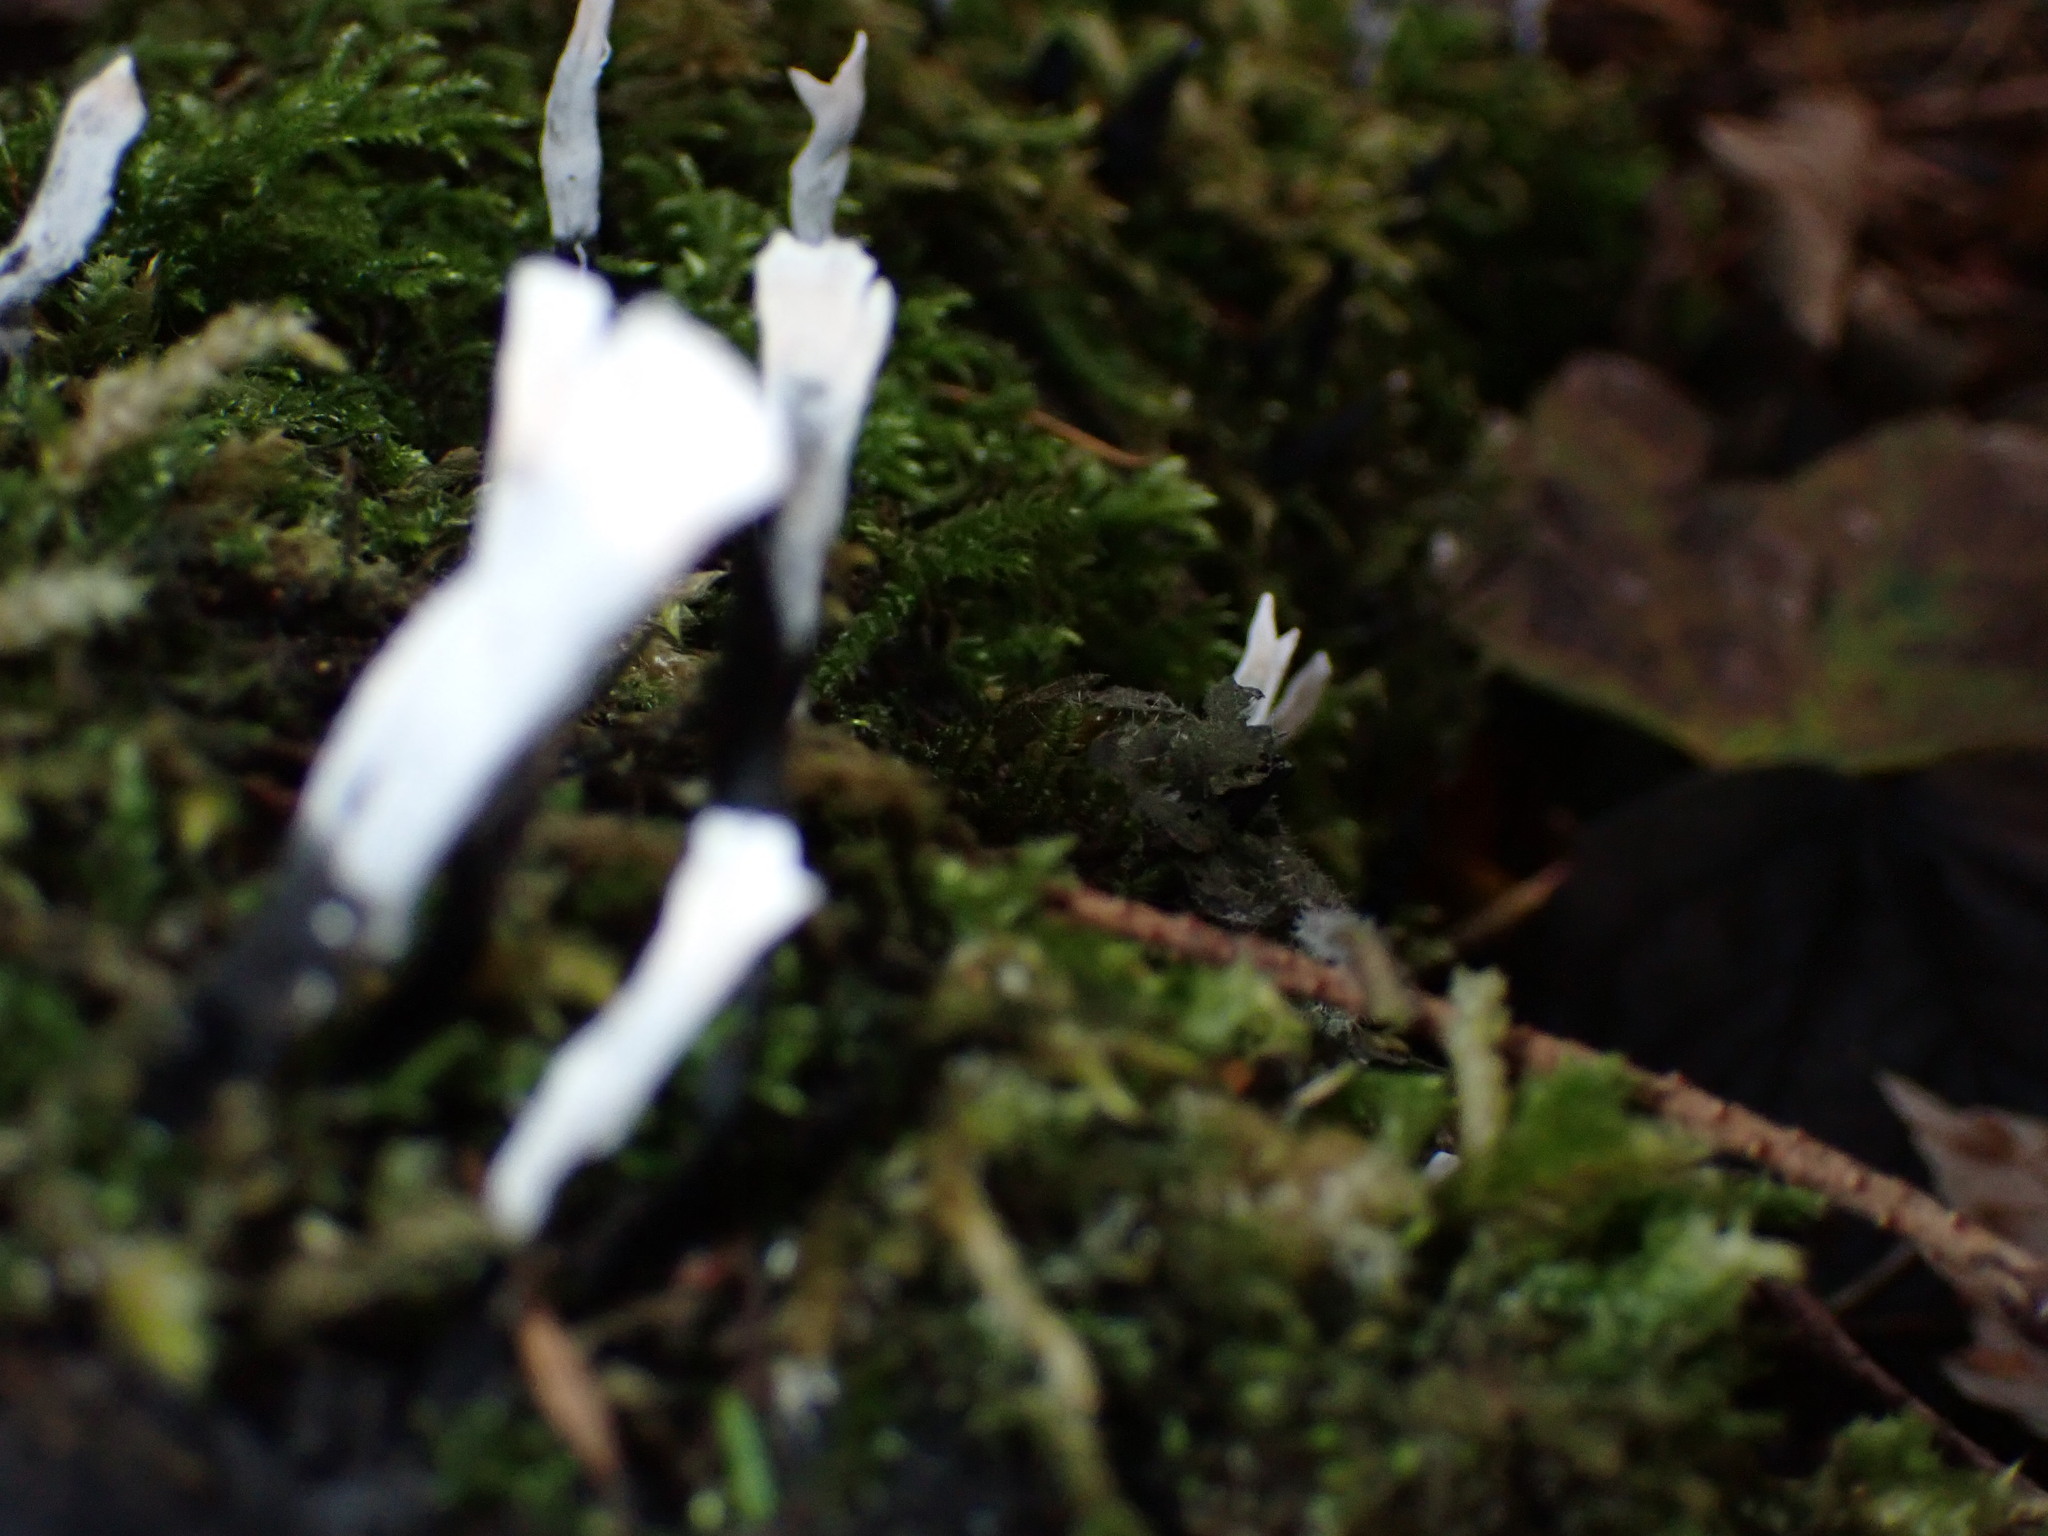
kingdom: Fungi
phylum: Ascomycota
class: Sordariomycetes
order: Xylariales
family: Xylariaceae
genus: Xylaria
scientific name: Xylaria hypoxylon
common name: Candle-snuff fungus
